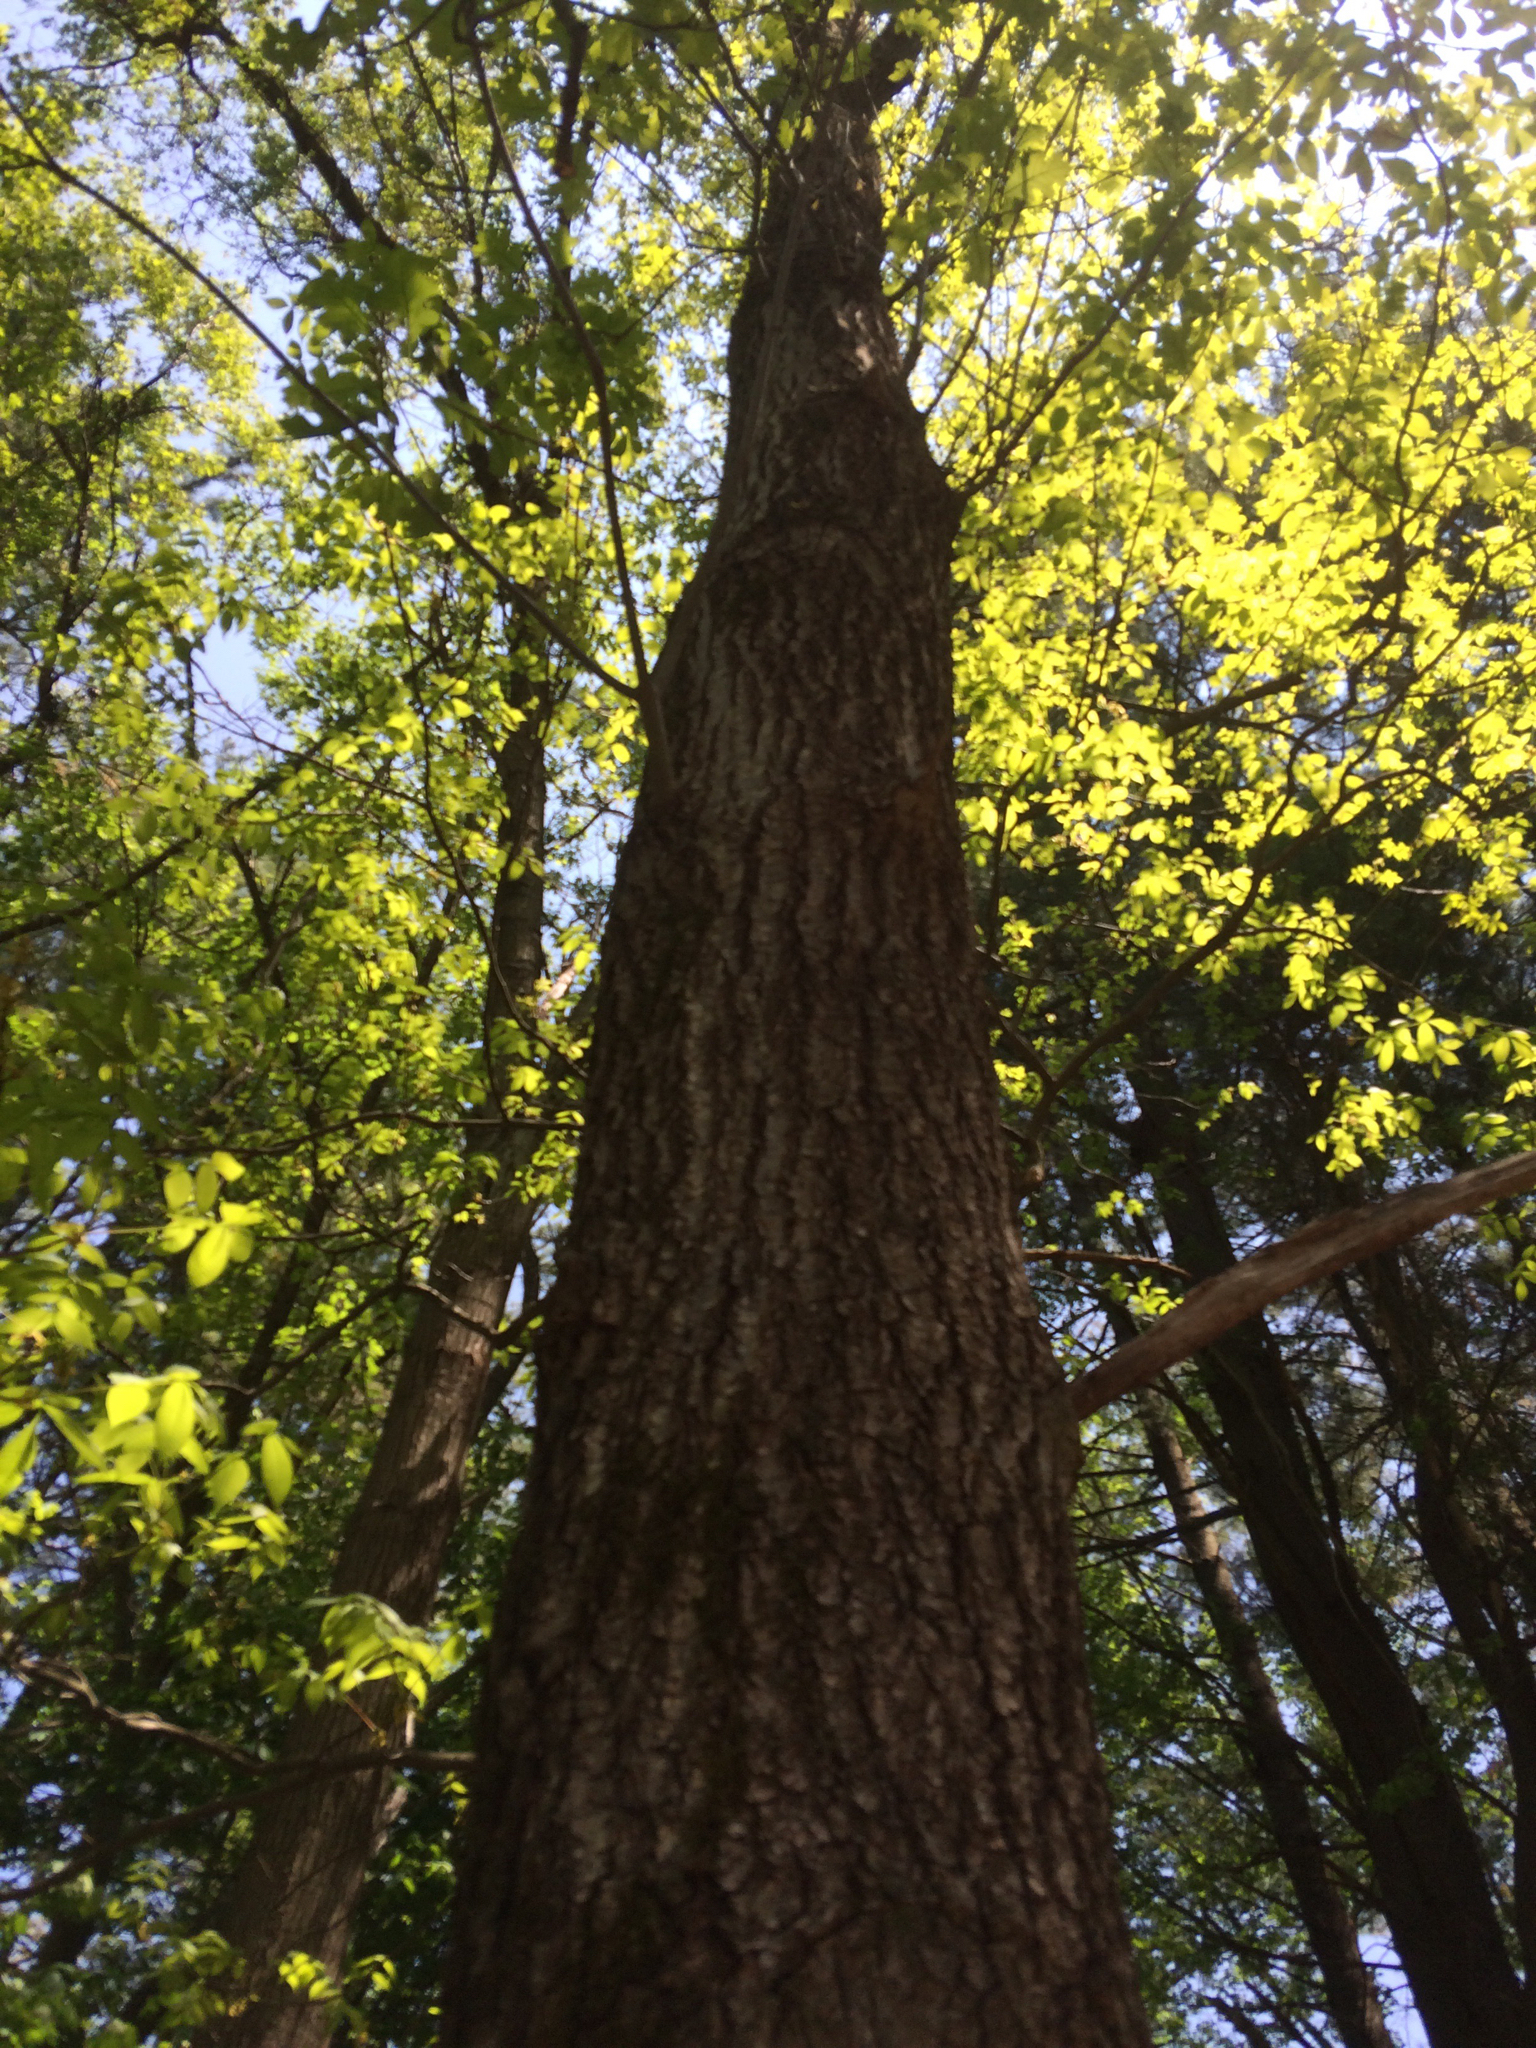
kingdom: Plantae
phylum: Tracheophyta
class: Magnoliopsida
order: Fagales
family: Fagaceae
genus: Quercus
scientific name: Quercus velutina
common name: Black oak
